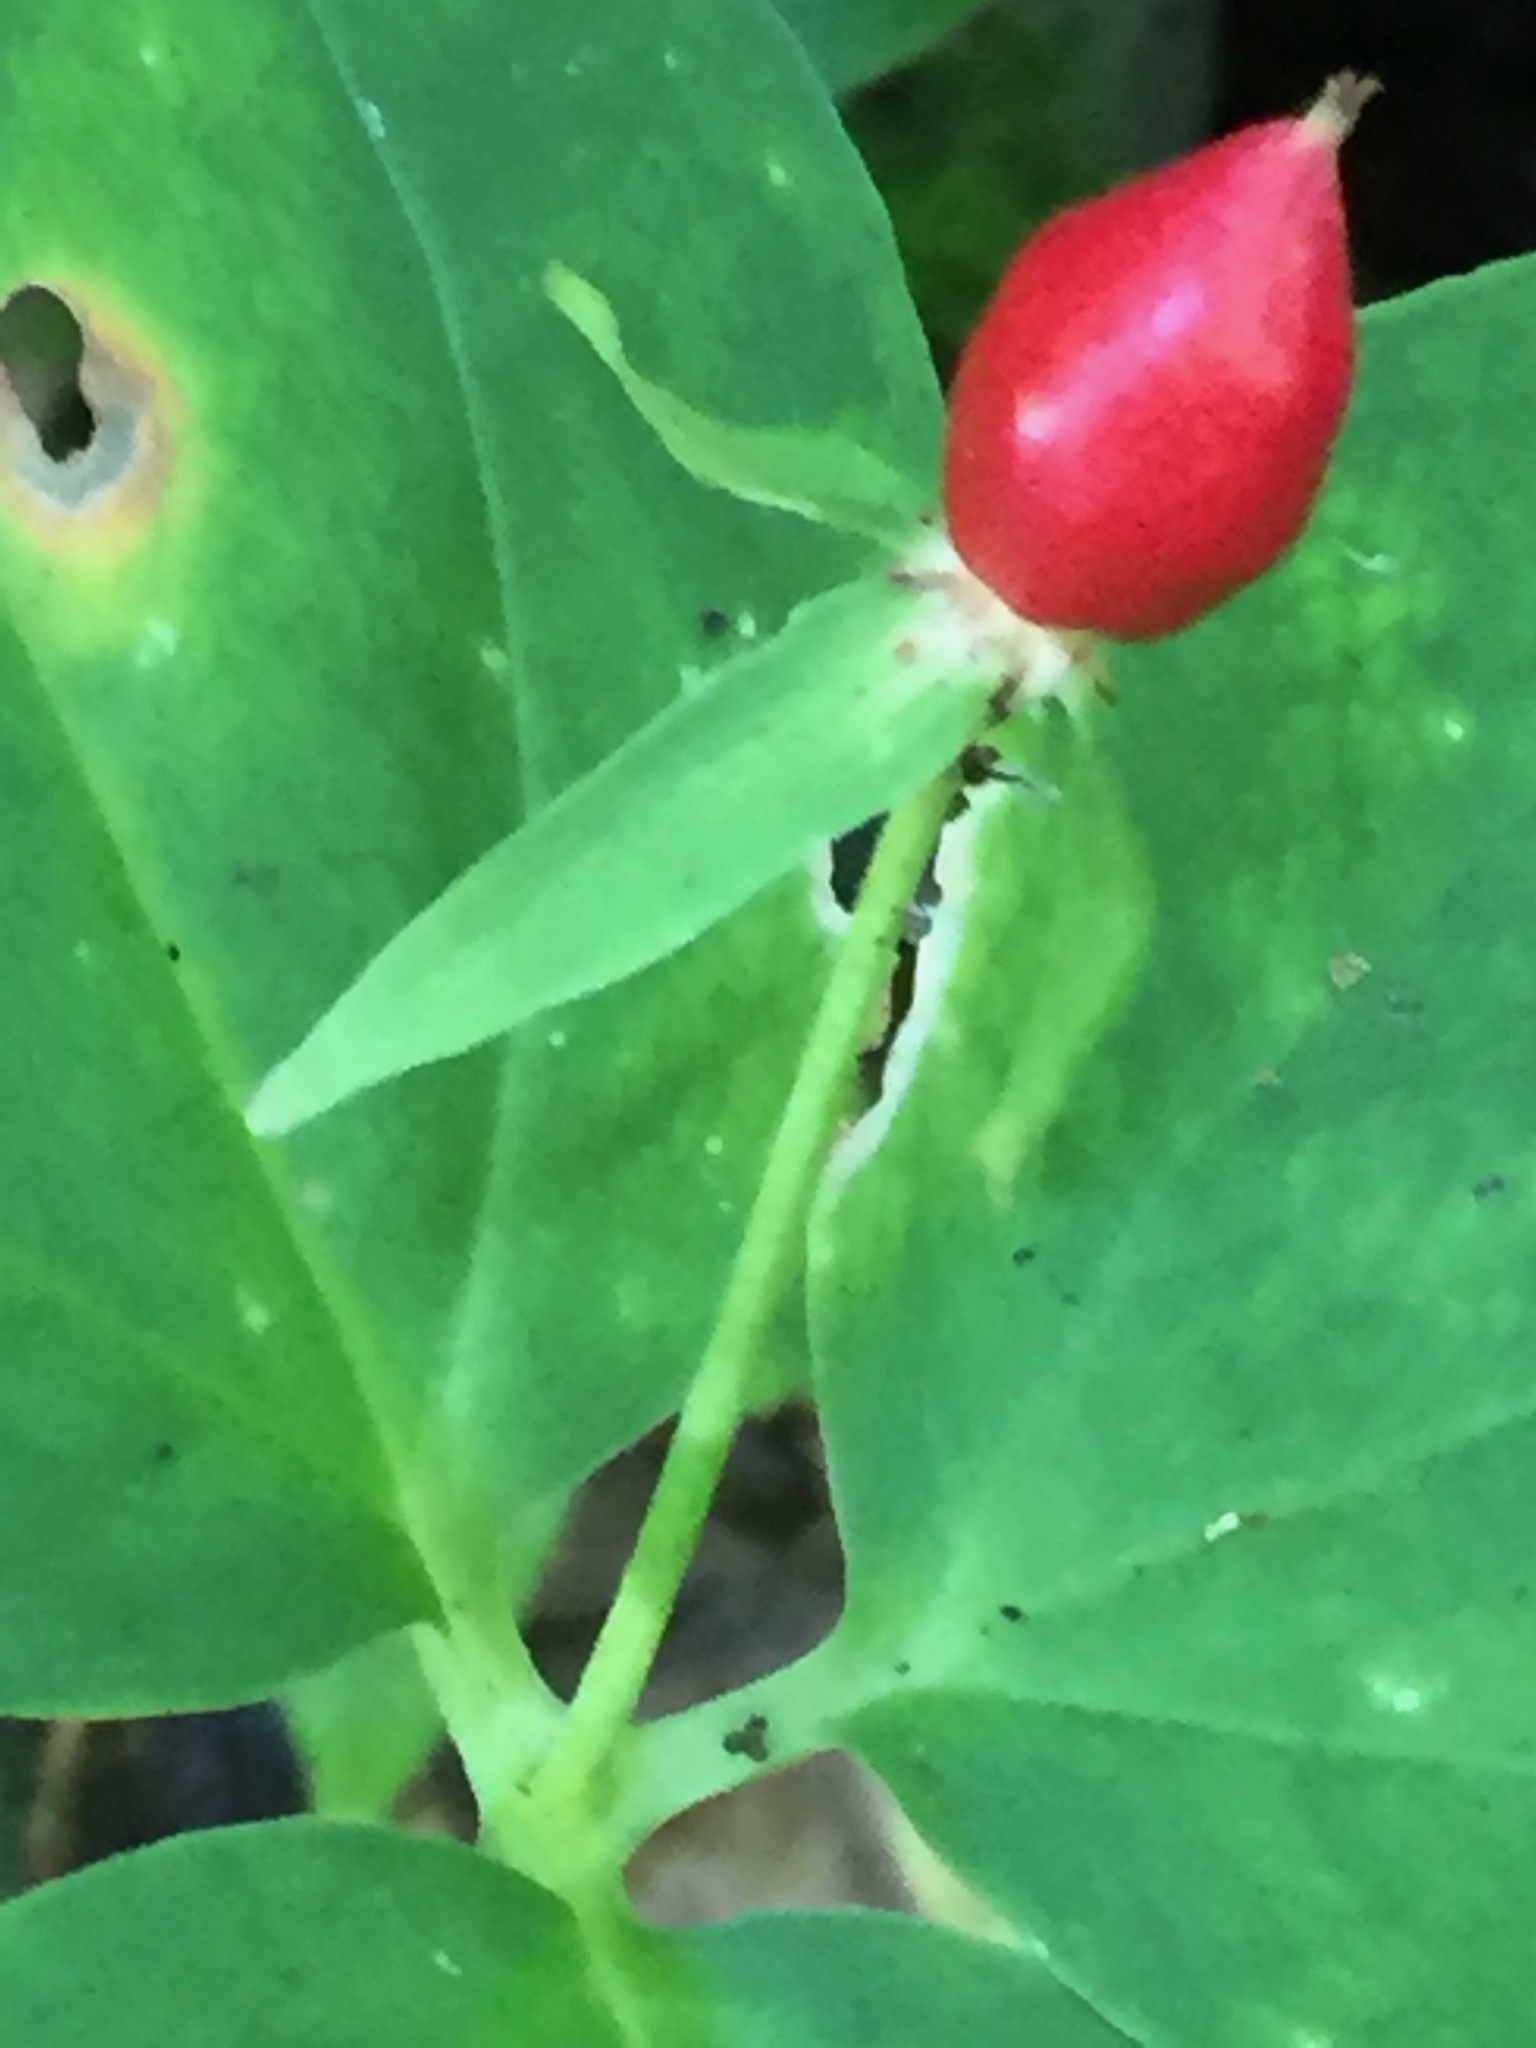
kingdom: Plantae
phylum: Tracheophyta
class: Liliopsida
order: Liliales
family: Melanthiaceae
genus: Trillium
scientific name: Trillium undulatum
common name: Paint trillium
